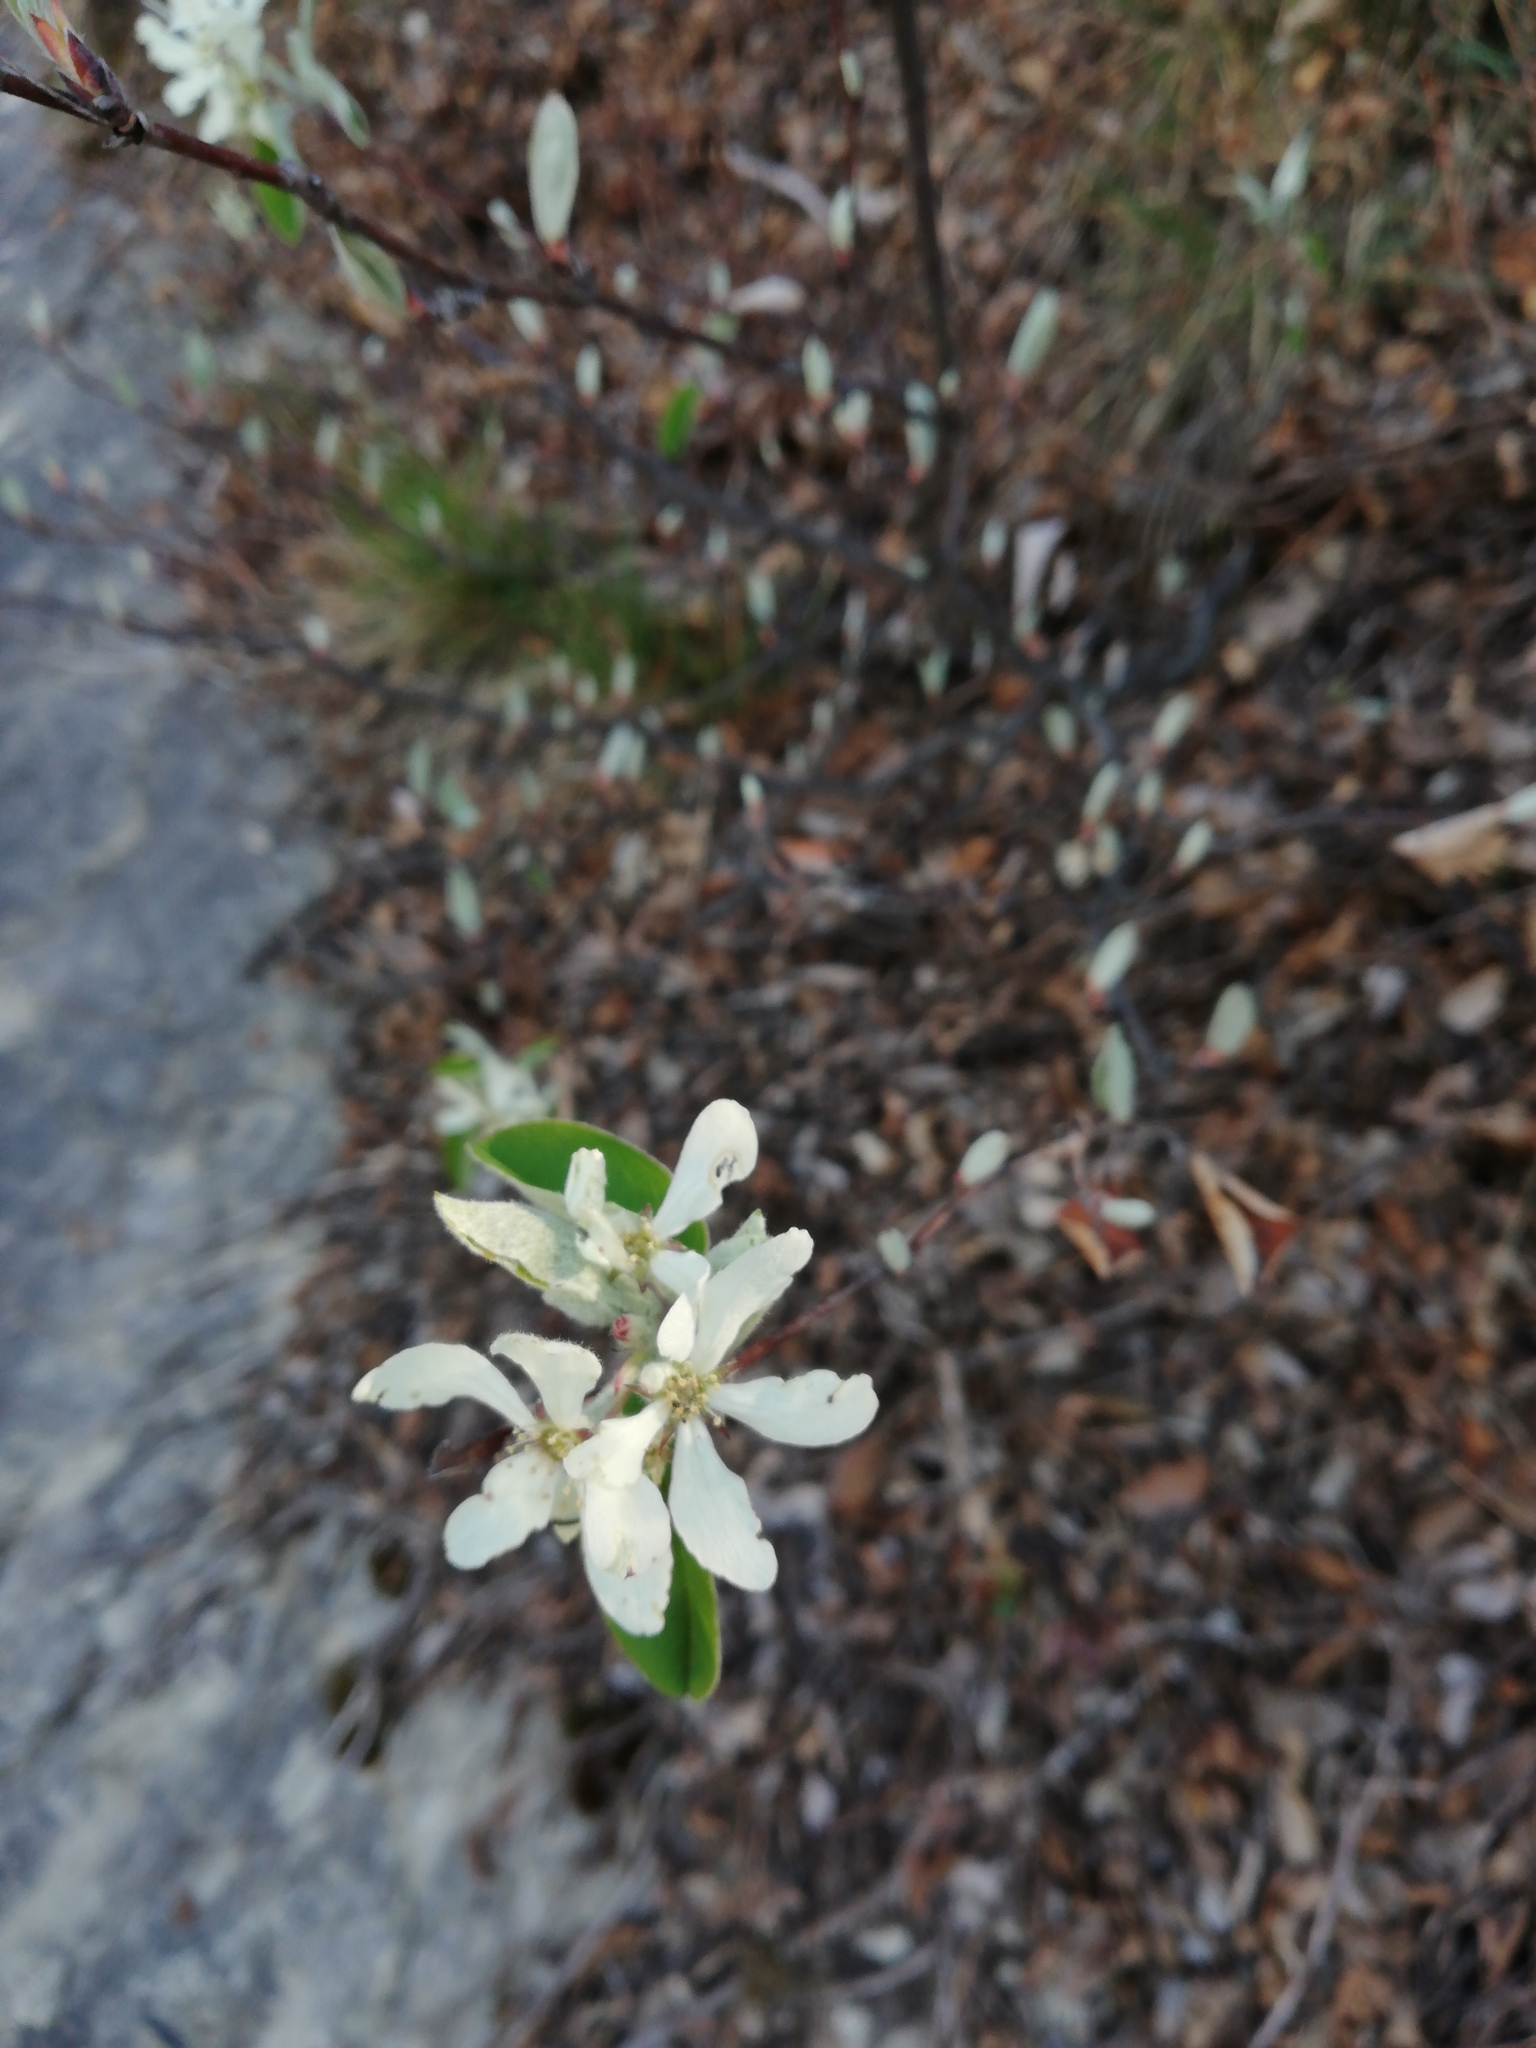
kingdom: Plantae
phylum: Tracheophyta
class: Magnoliopsida
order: Rosales
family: Rosaceae
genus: Amelanchier
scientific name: Amelanchier ovalis
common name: Serviceberry
